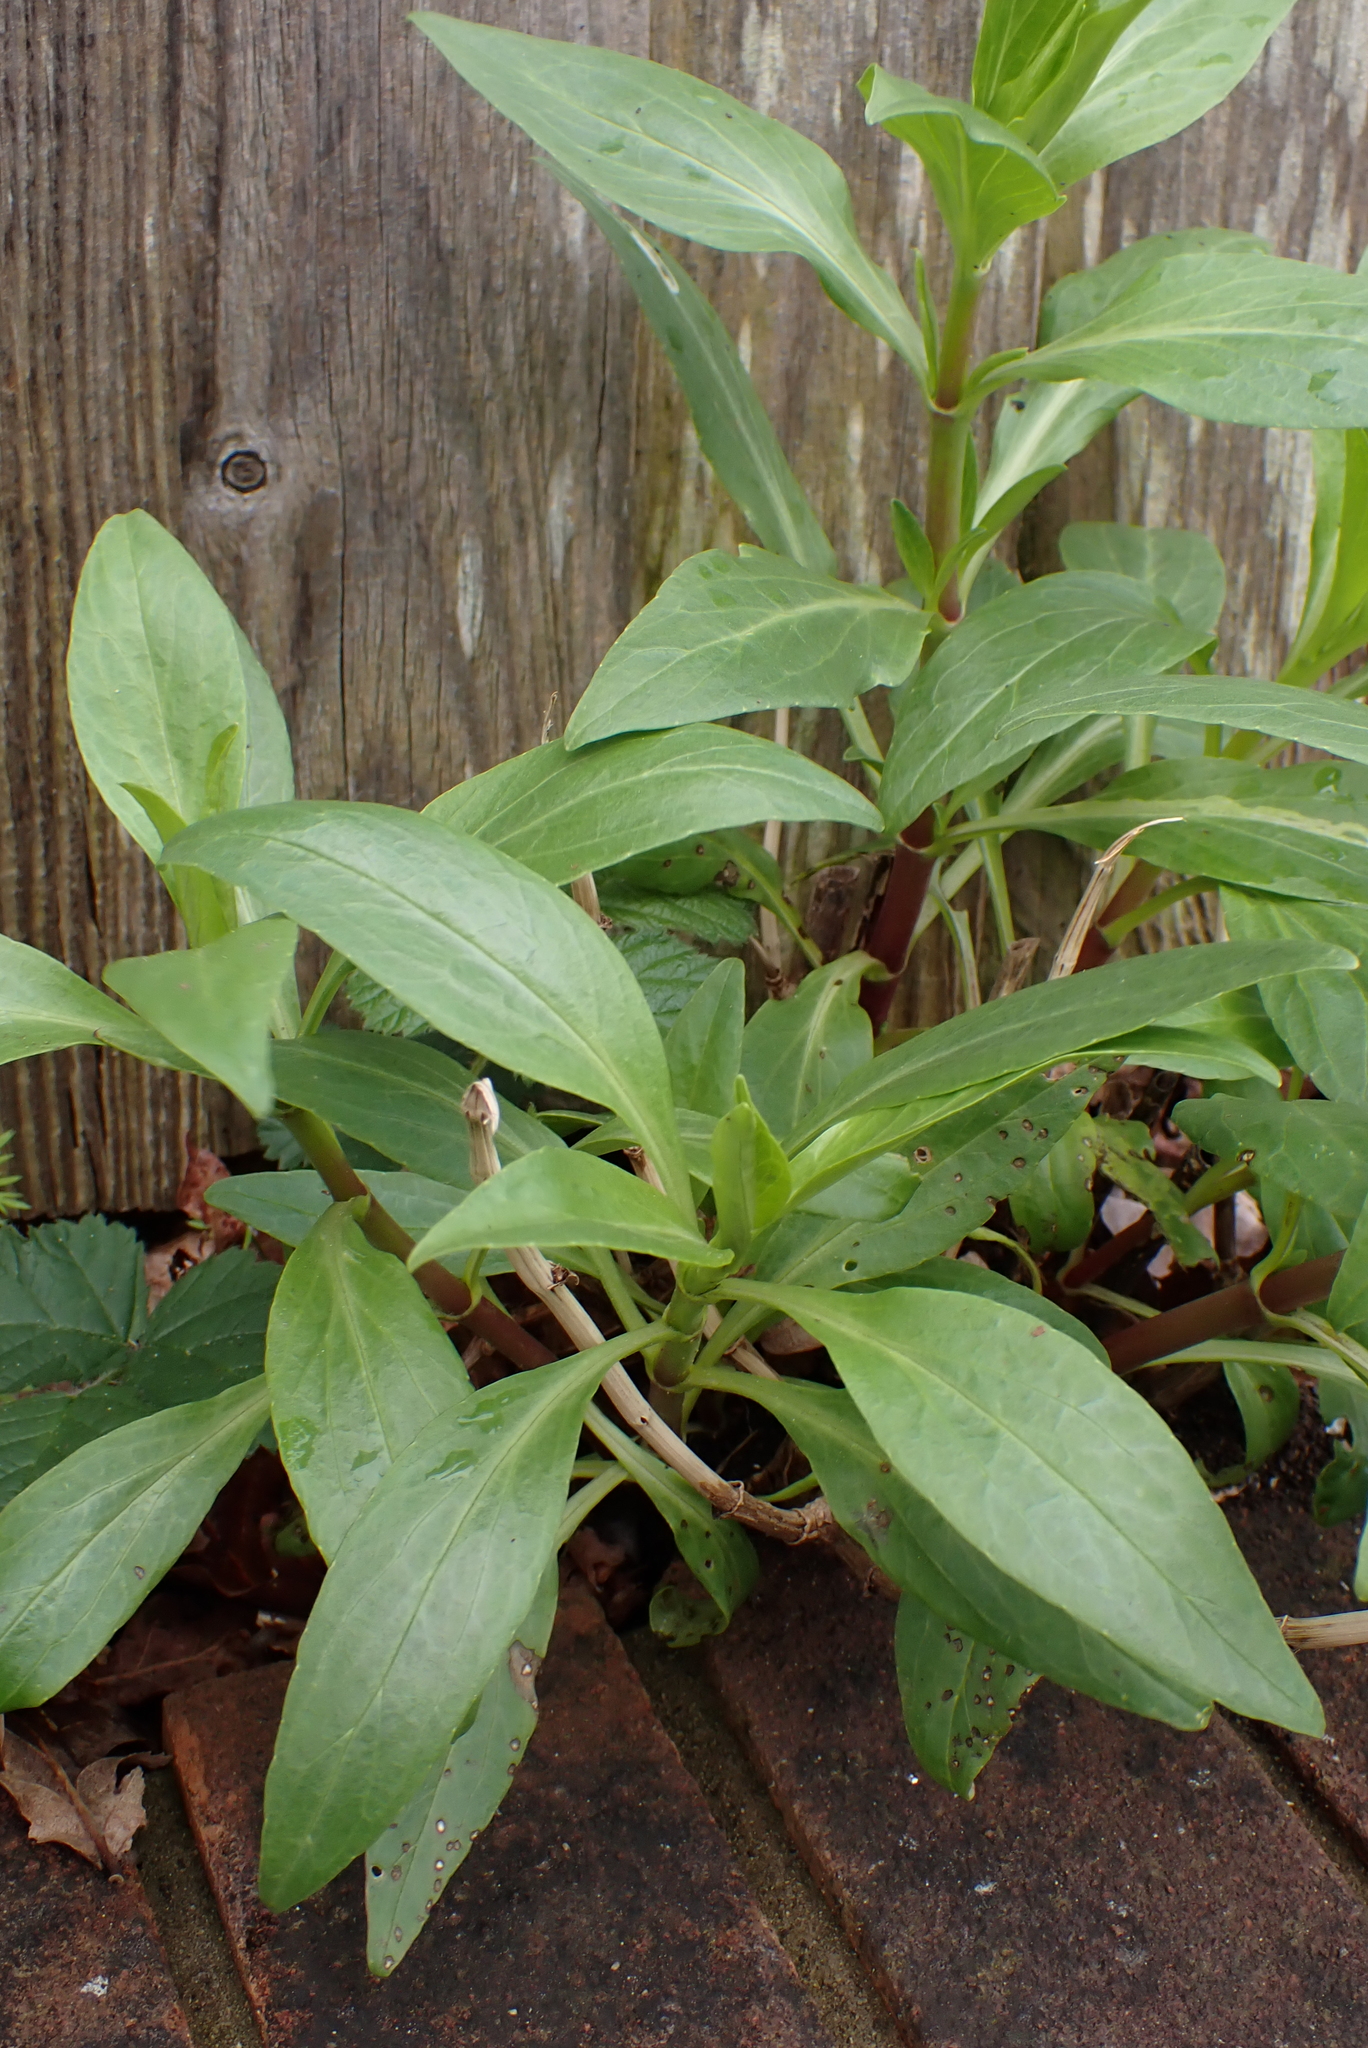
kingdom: Plantae
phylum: Tracheophyta
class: Magnoliopsida
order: Dipsacales
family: Caprifoliaceae
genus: Centranthus
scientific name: Centranthus ruber
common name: Red valerian
